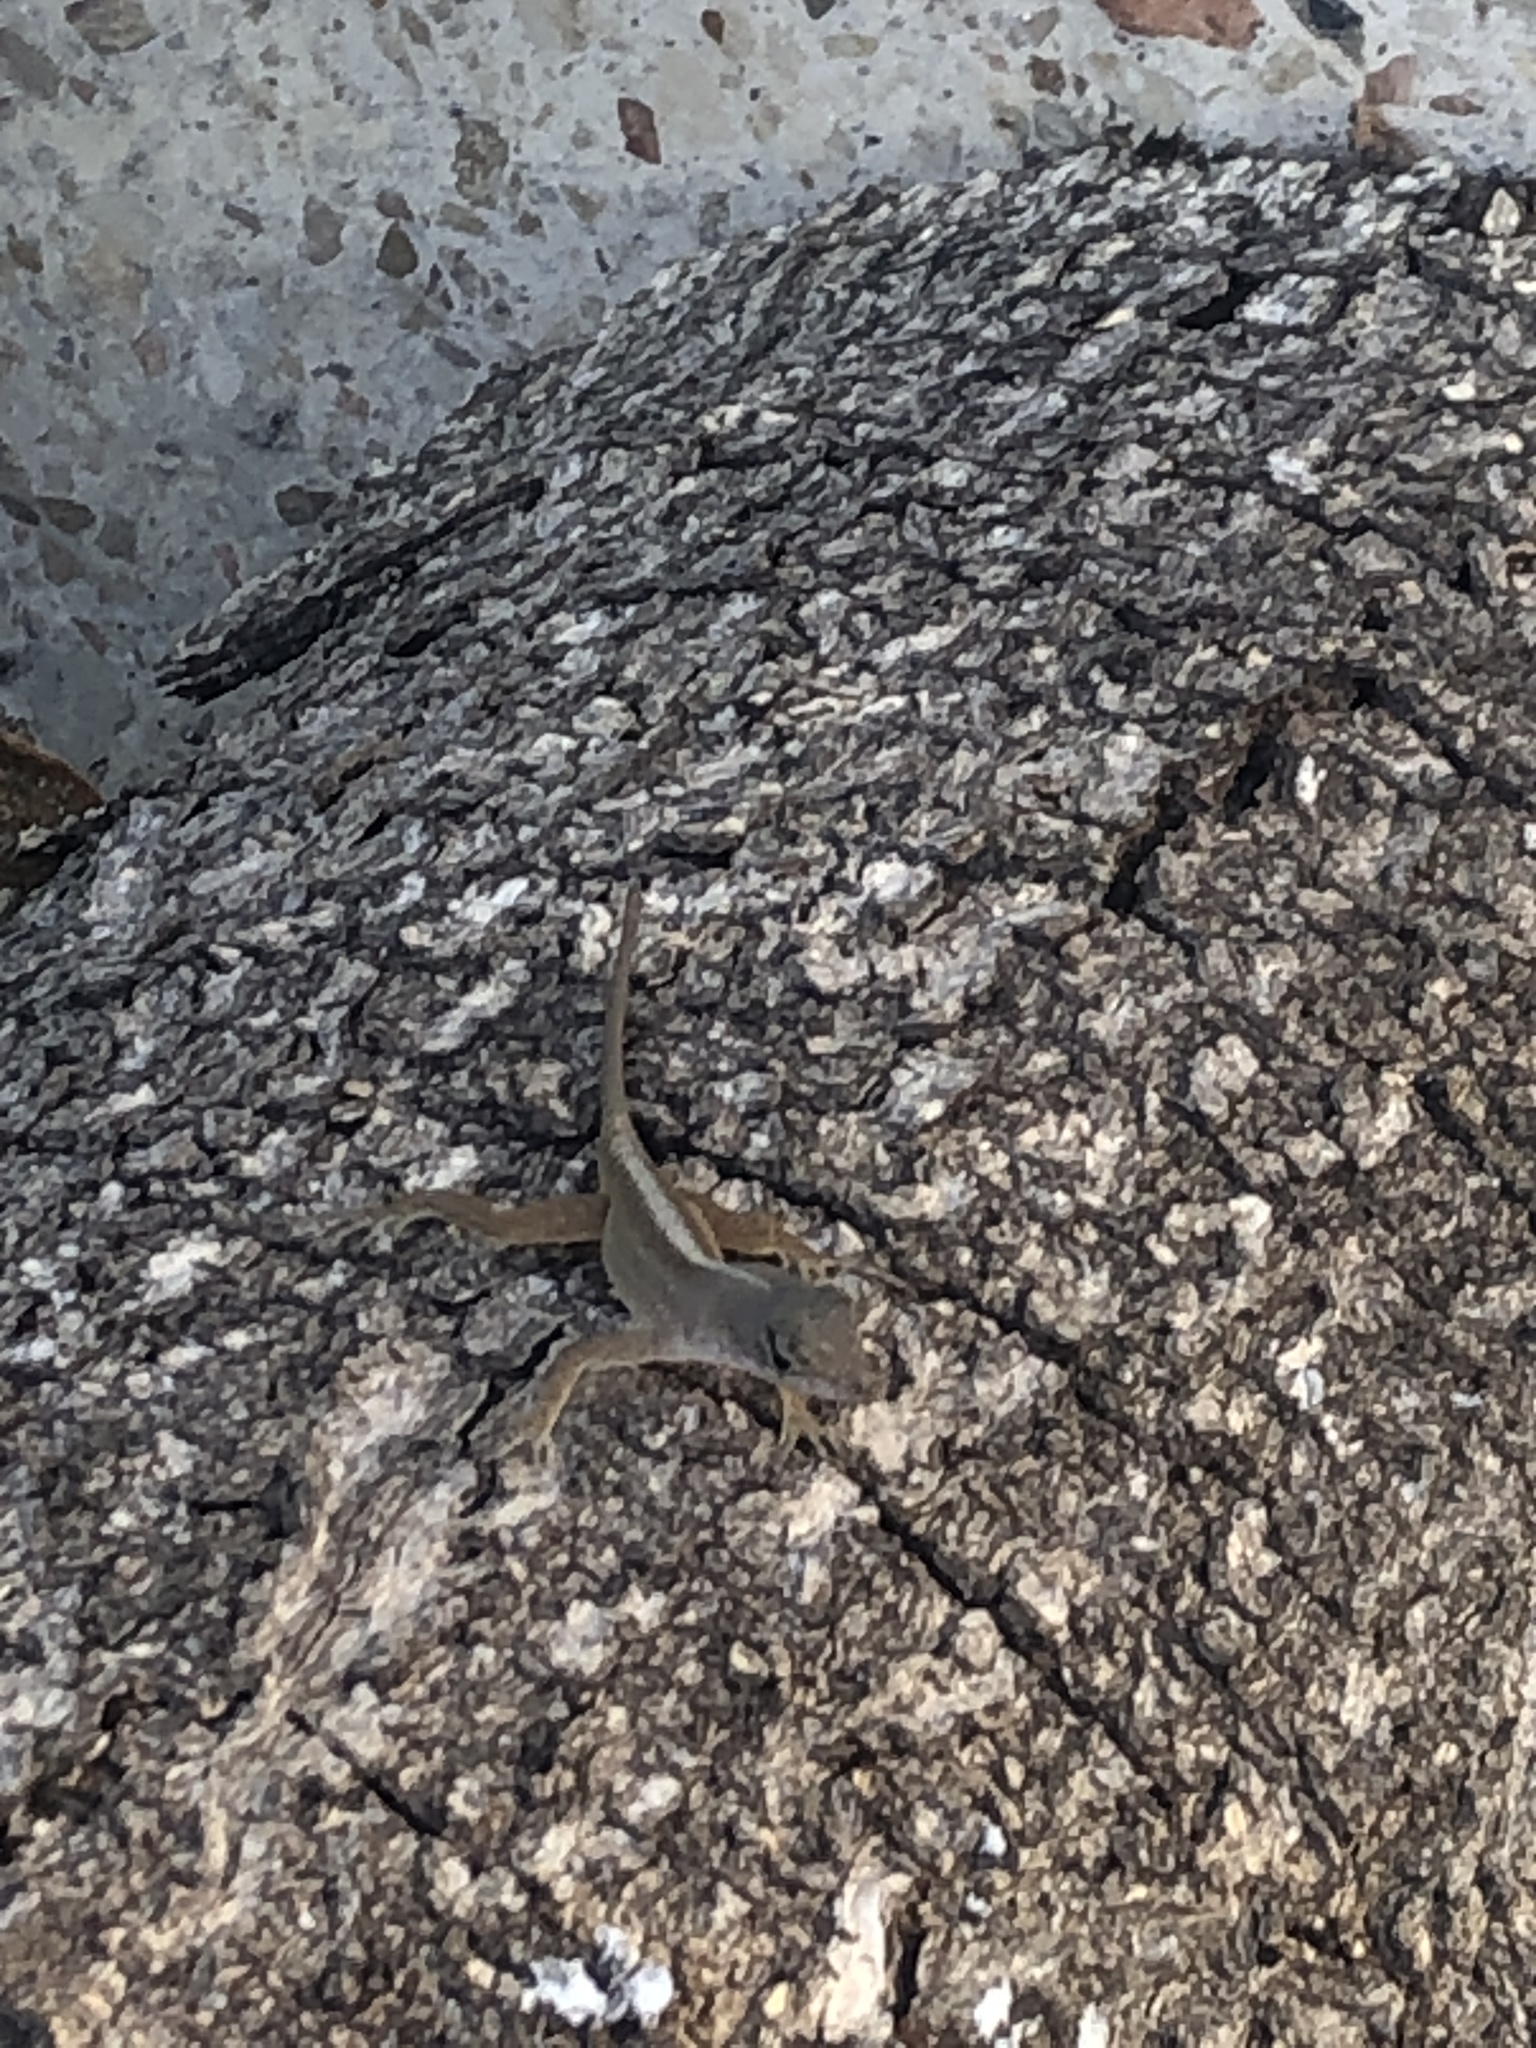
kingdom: Animalia
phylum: Chordata
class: Squamata
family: Dactyloidae
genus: Anolis
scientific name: Anolis sagrei
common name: Brown anole
